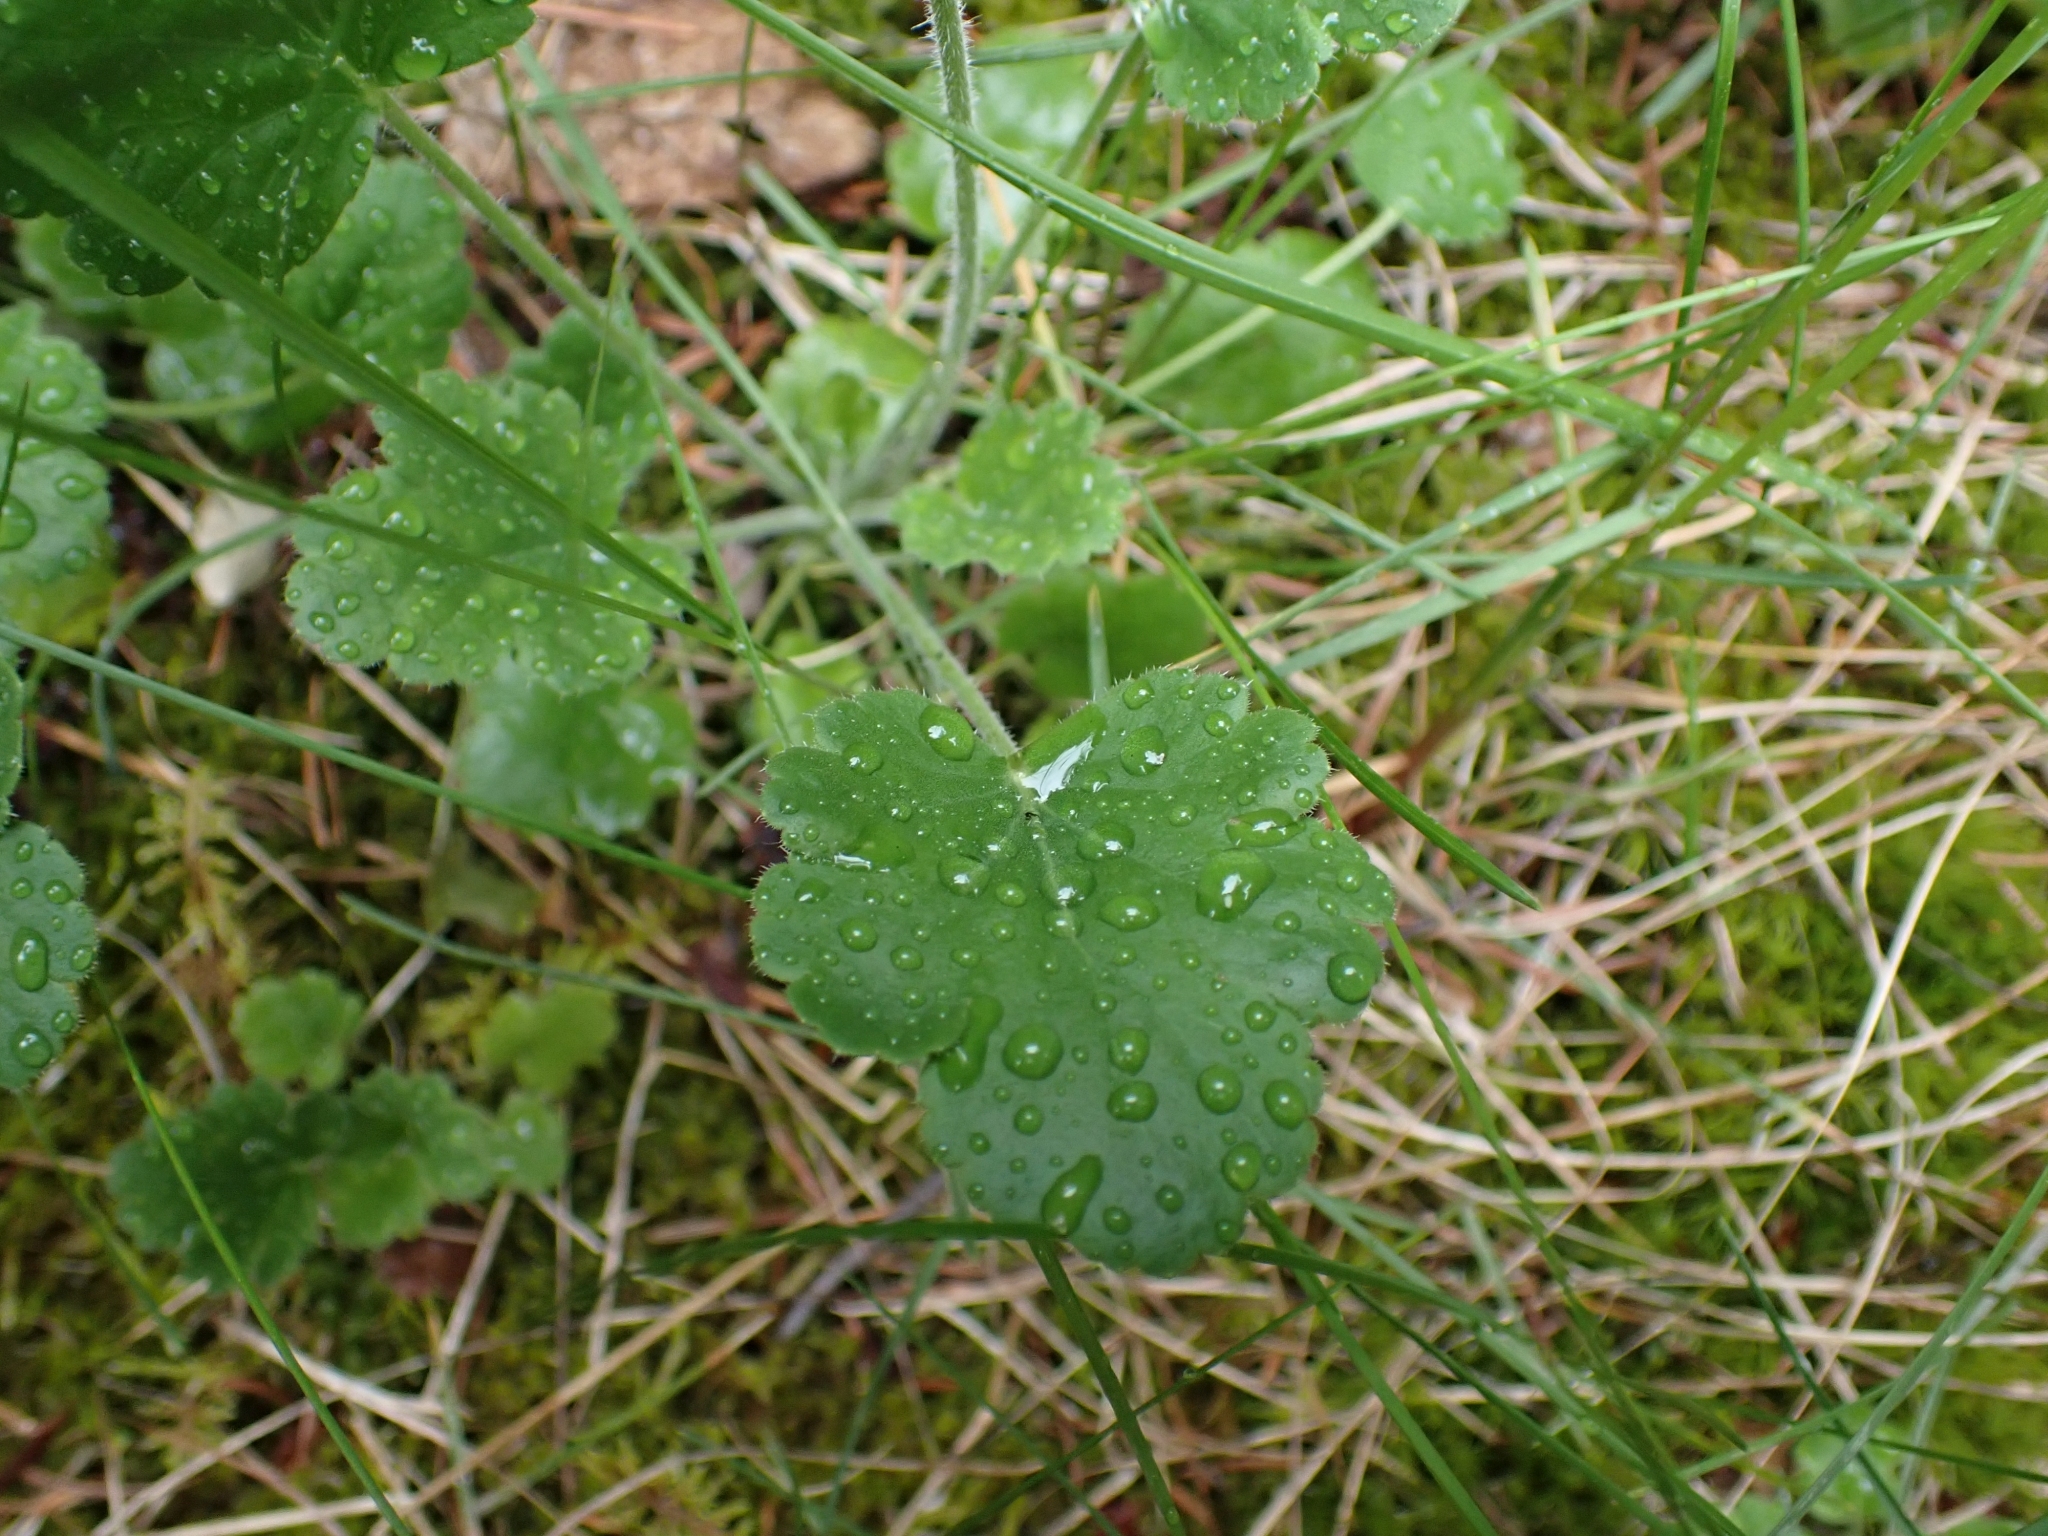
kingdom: Plantae
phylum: Tracheophyta
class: Magnoliopsida
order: Saxifragales
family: Saxifragaceae
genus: Heuchera
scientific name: Heuchera cylindrica
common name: Mat alumroot
